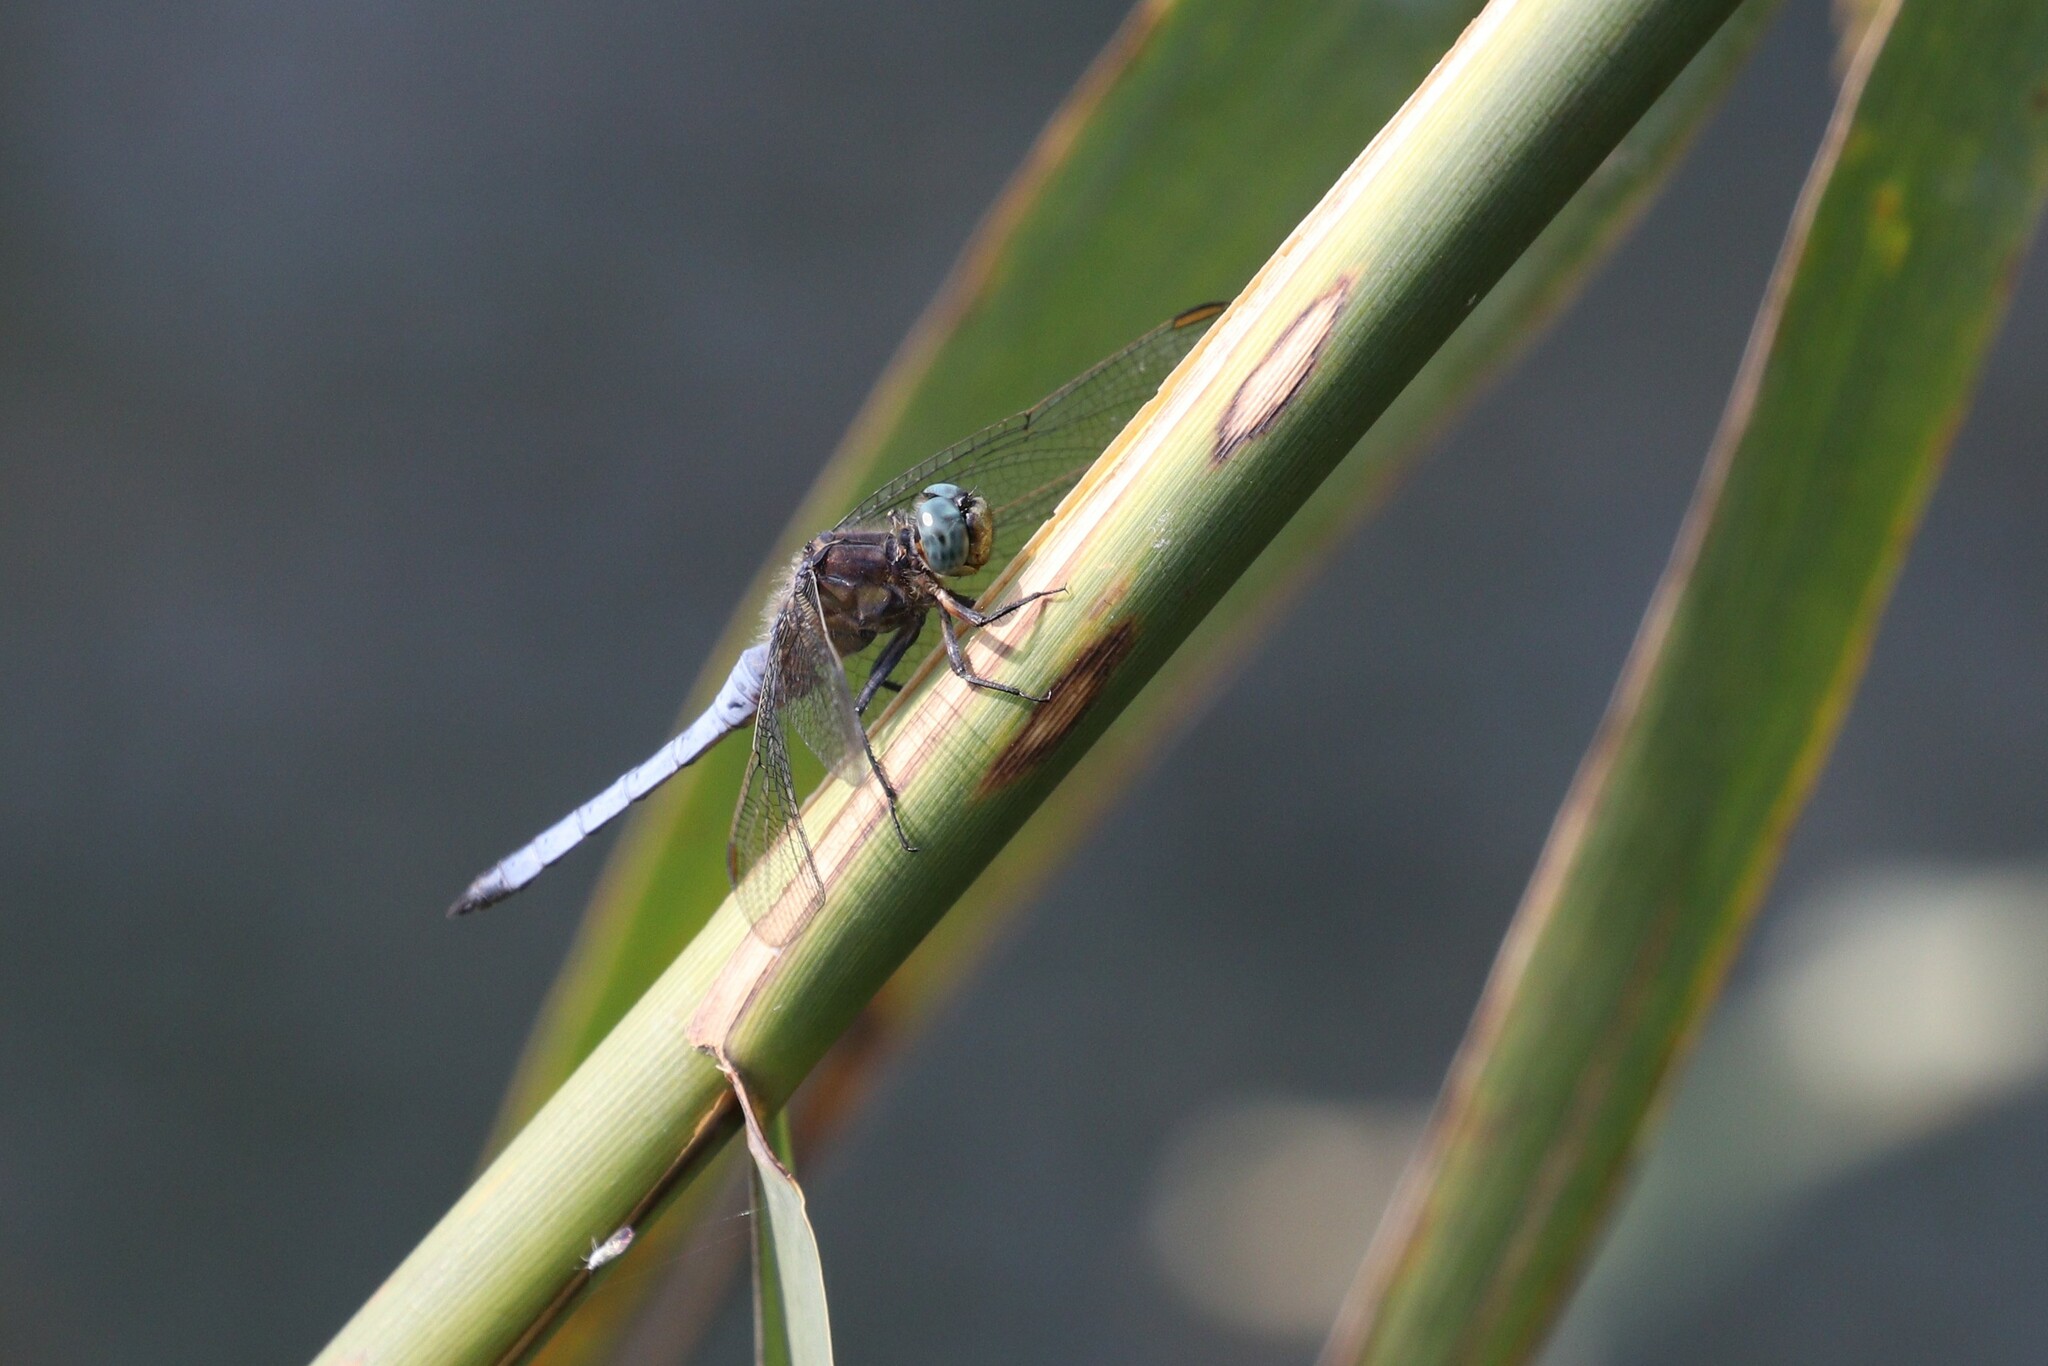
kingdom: Animalia
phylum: Arthropoda
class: Insecta
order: Odonata
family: Libellulidae
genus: Orthetrum
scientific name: Orthetrum coerulescens
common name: Keeled skimmer
